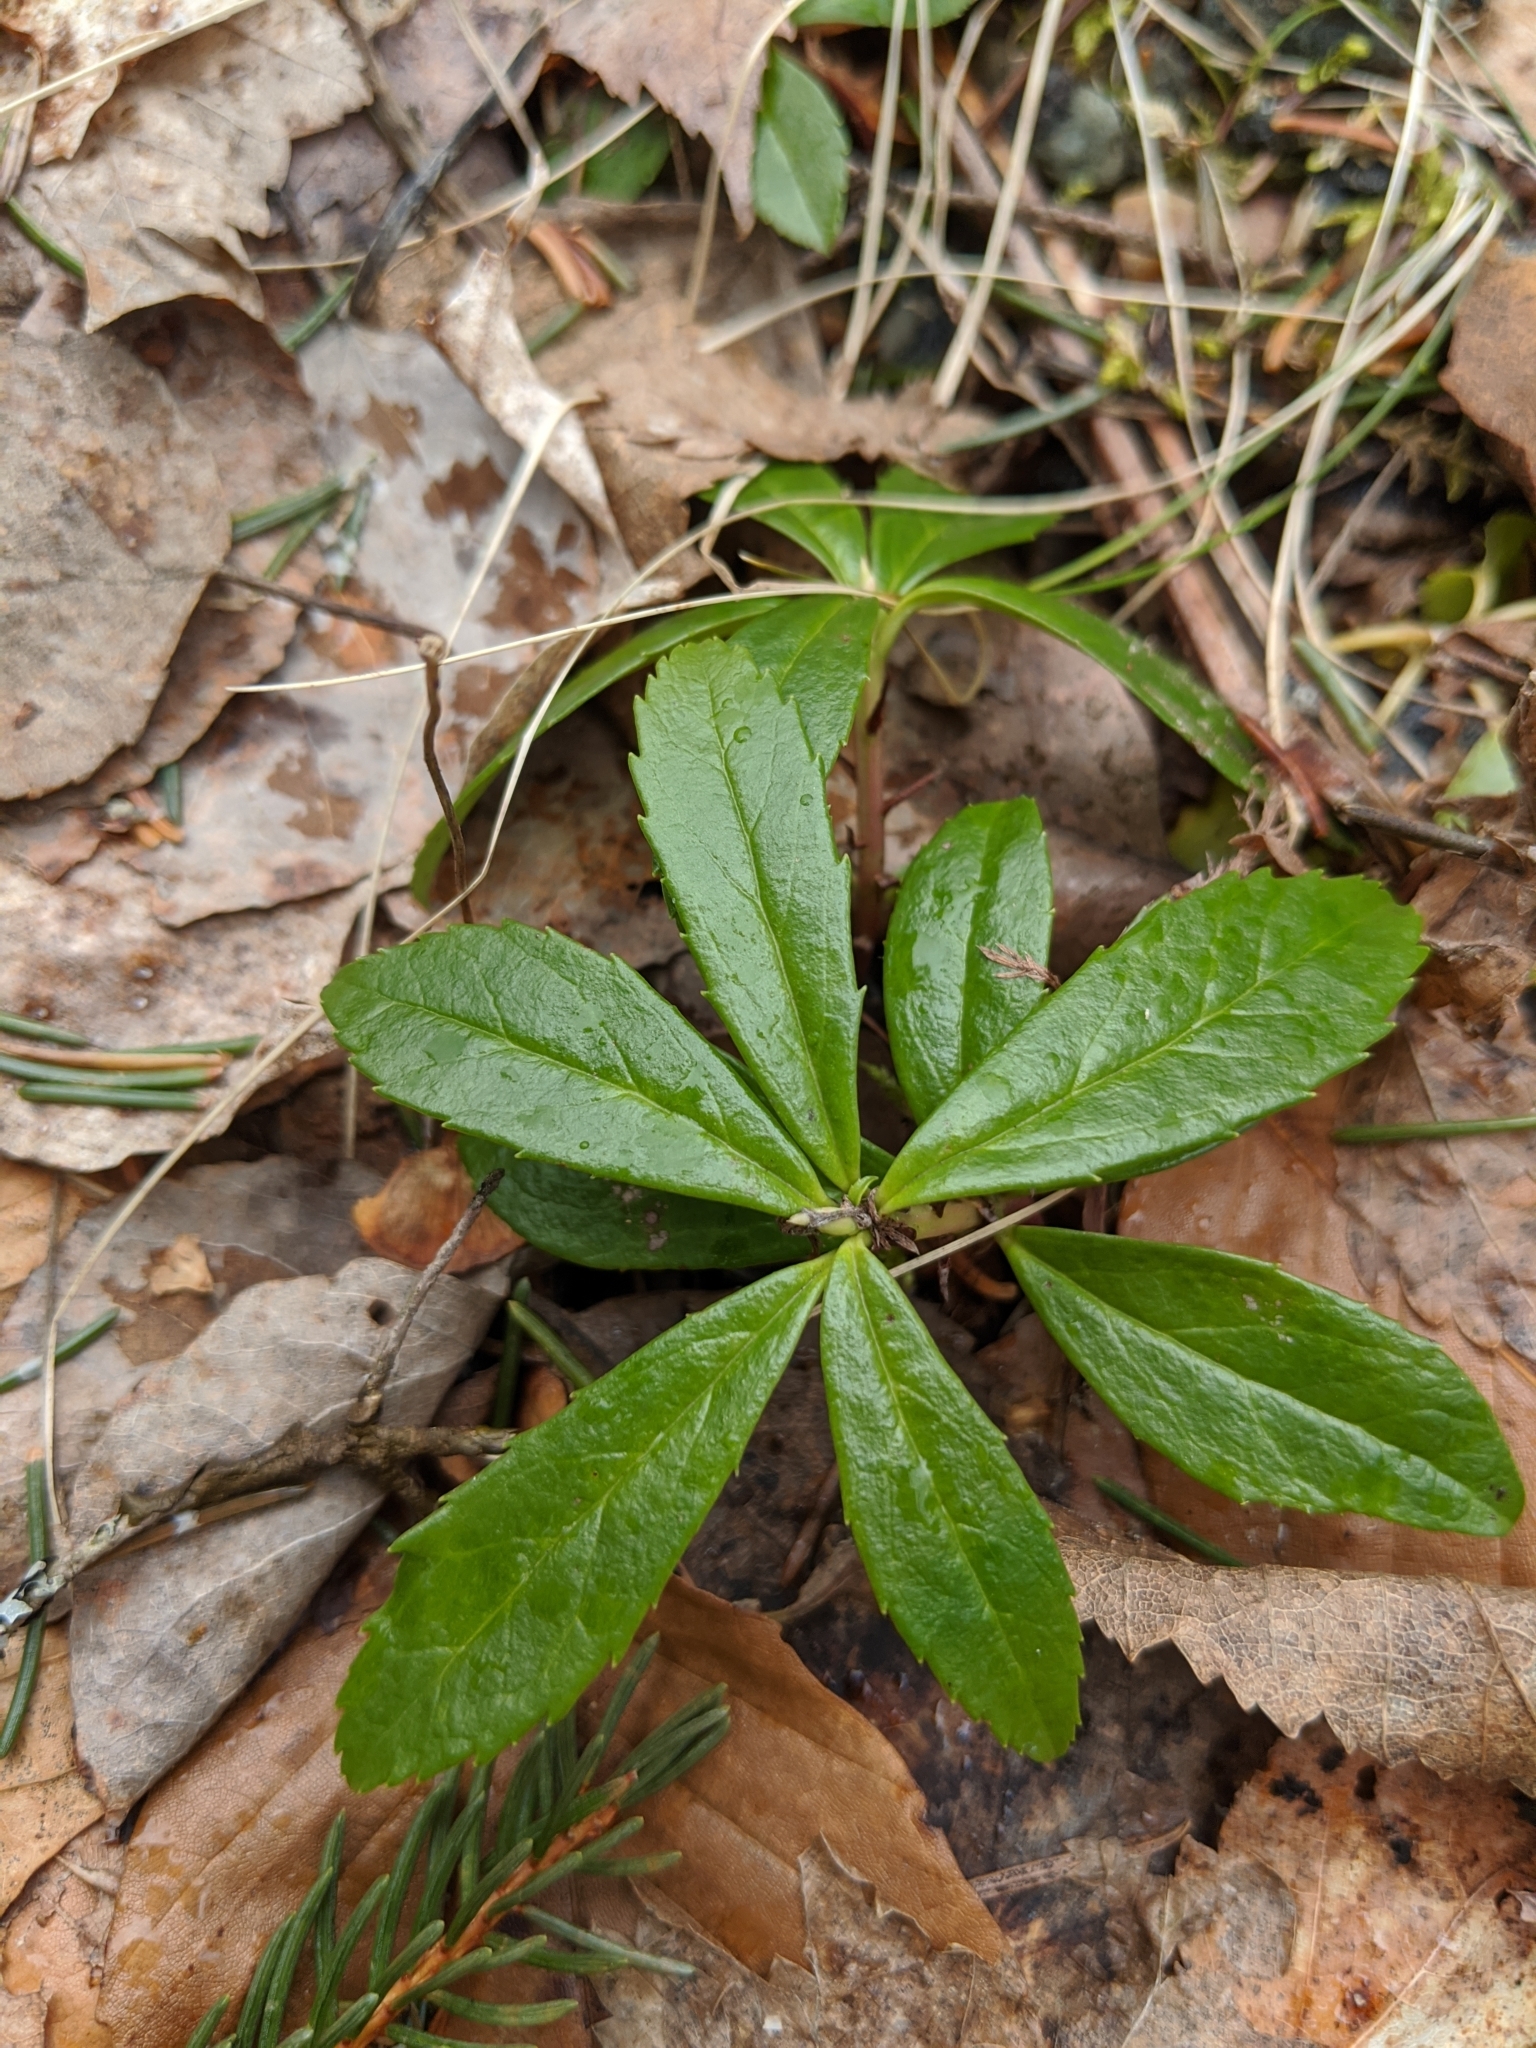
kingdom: Plantae
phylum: Tracheophyta
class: Magnoliopsida
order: Ericales
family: Ericaceae
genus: Chimaphila
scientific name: Chimaphila umbellata
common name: Pipsissewa
